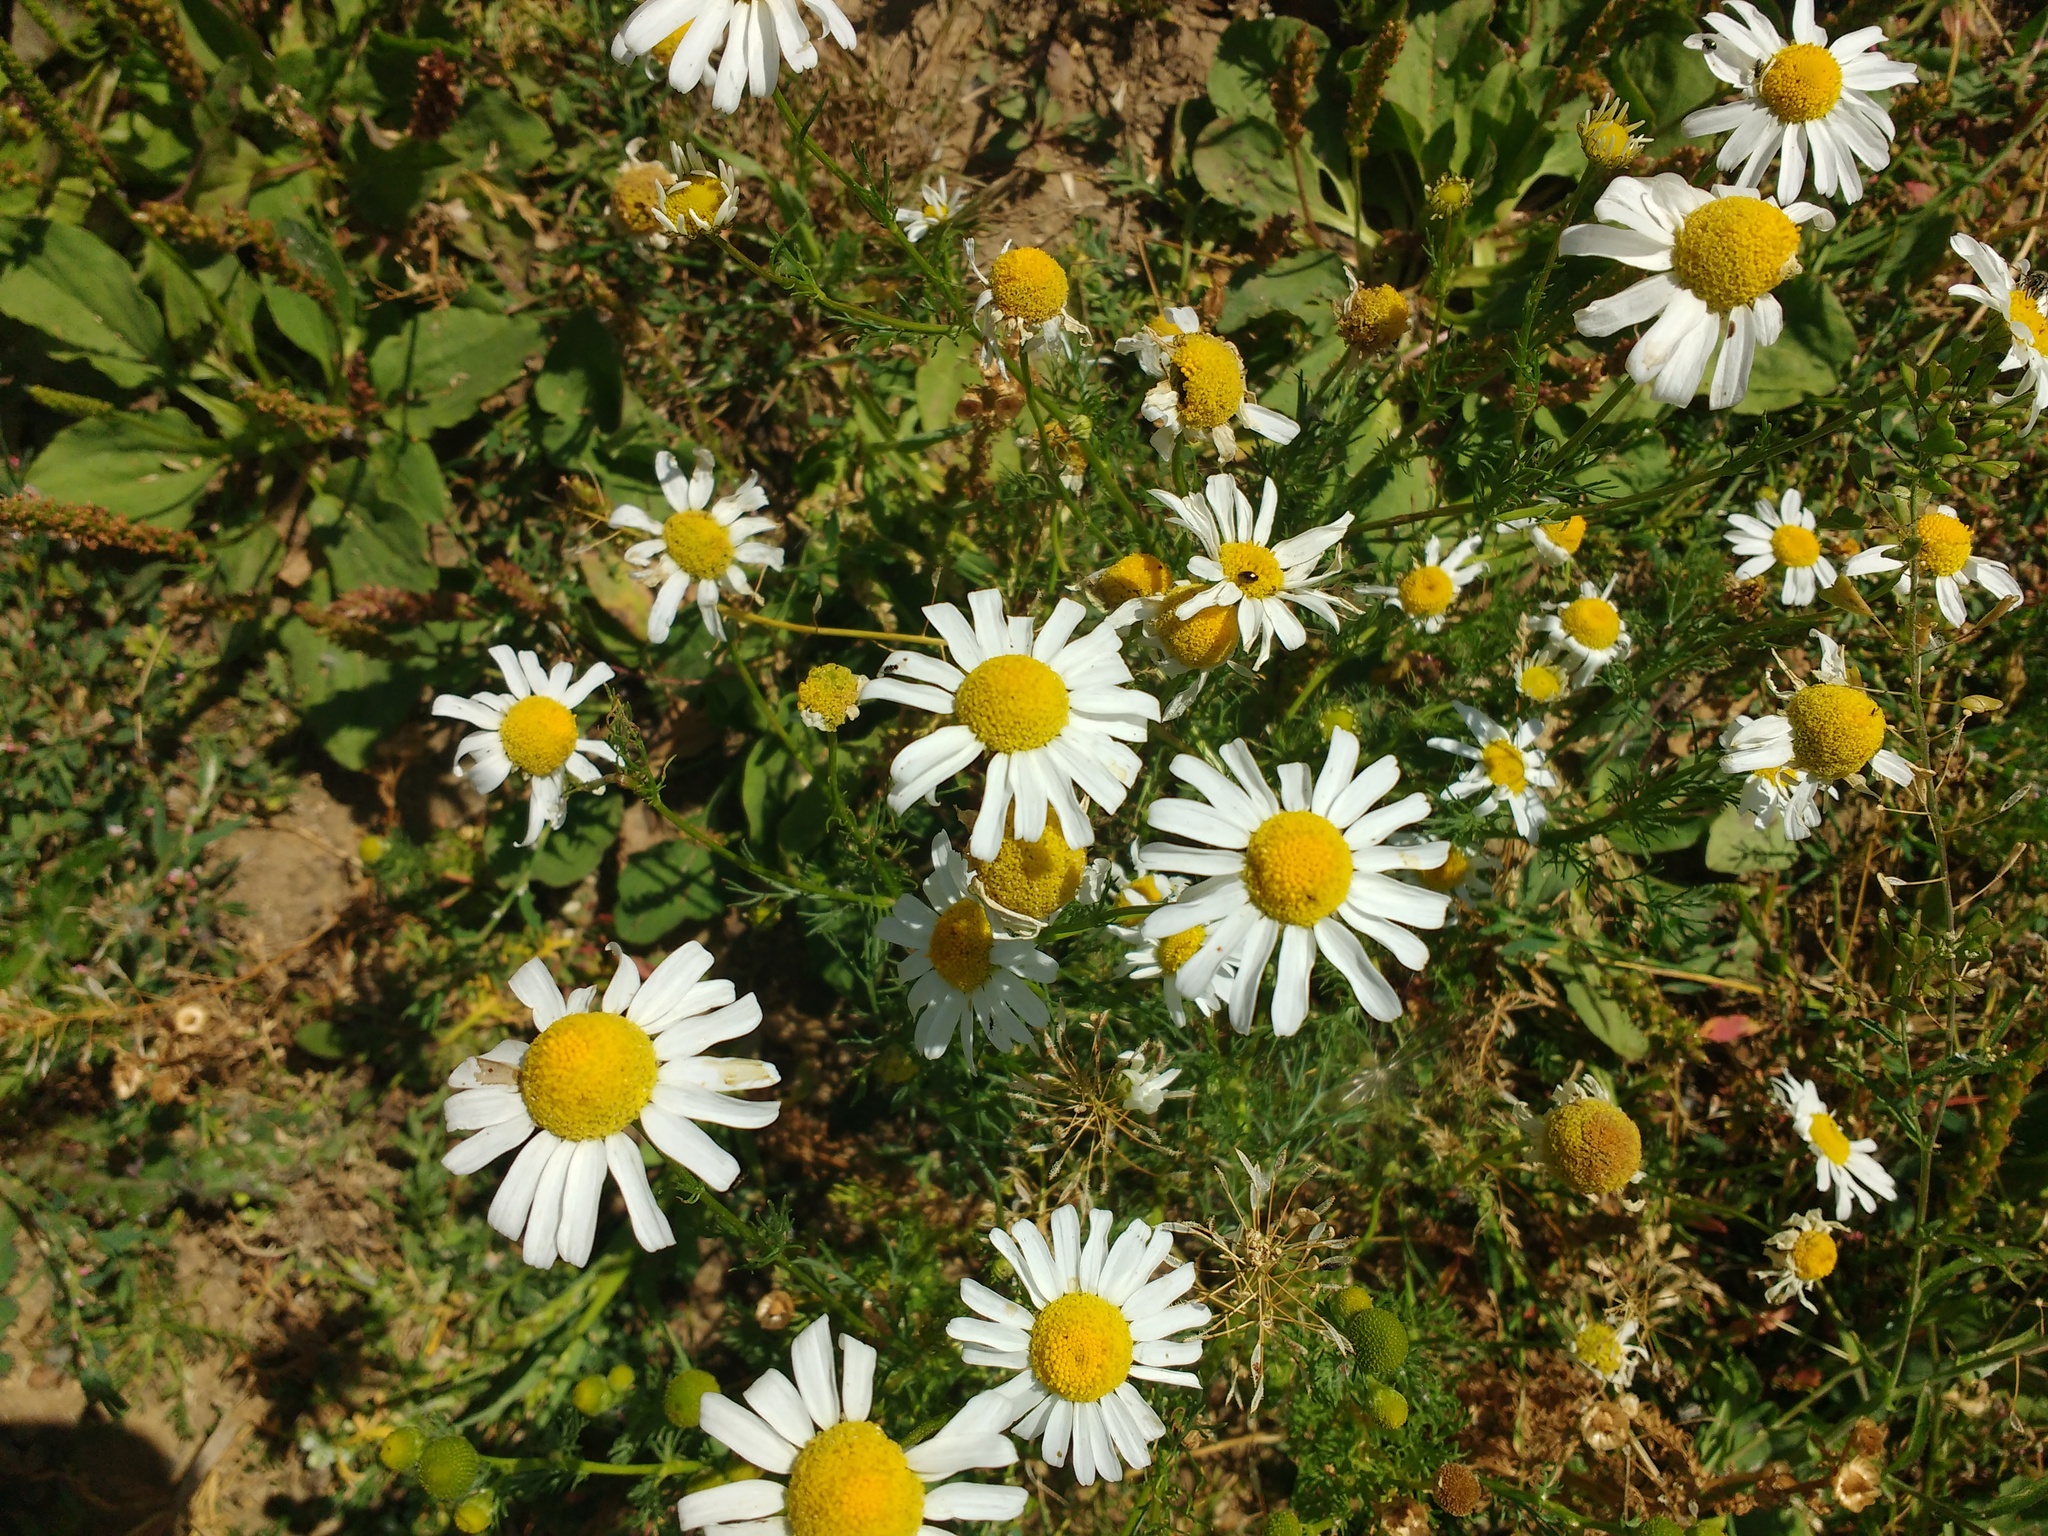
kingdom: Plantae
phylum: Tracheophyta
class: Magnoliopsida
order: Asterales
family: Asteraceae
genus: Tripleurospermum
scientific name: Tripleurospermum inodorum
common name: Scentless mayweed
